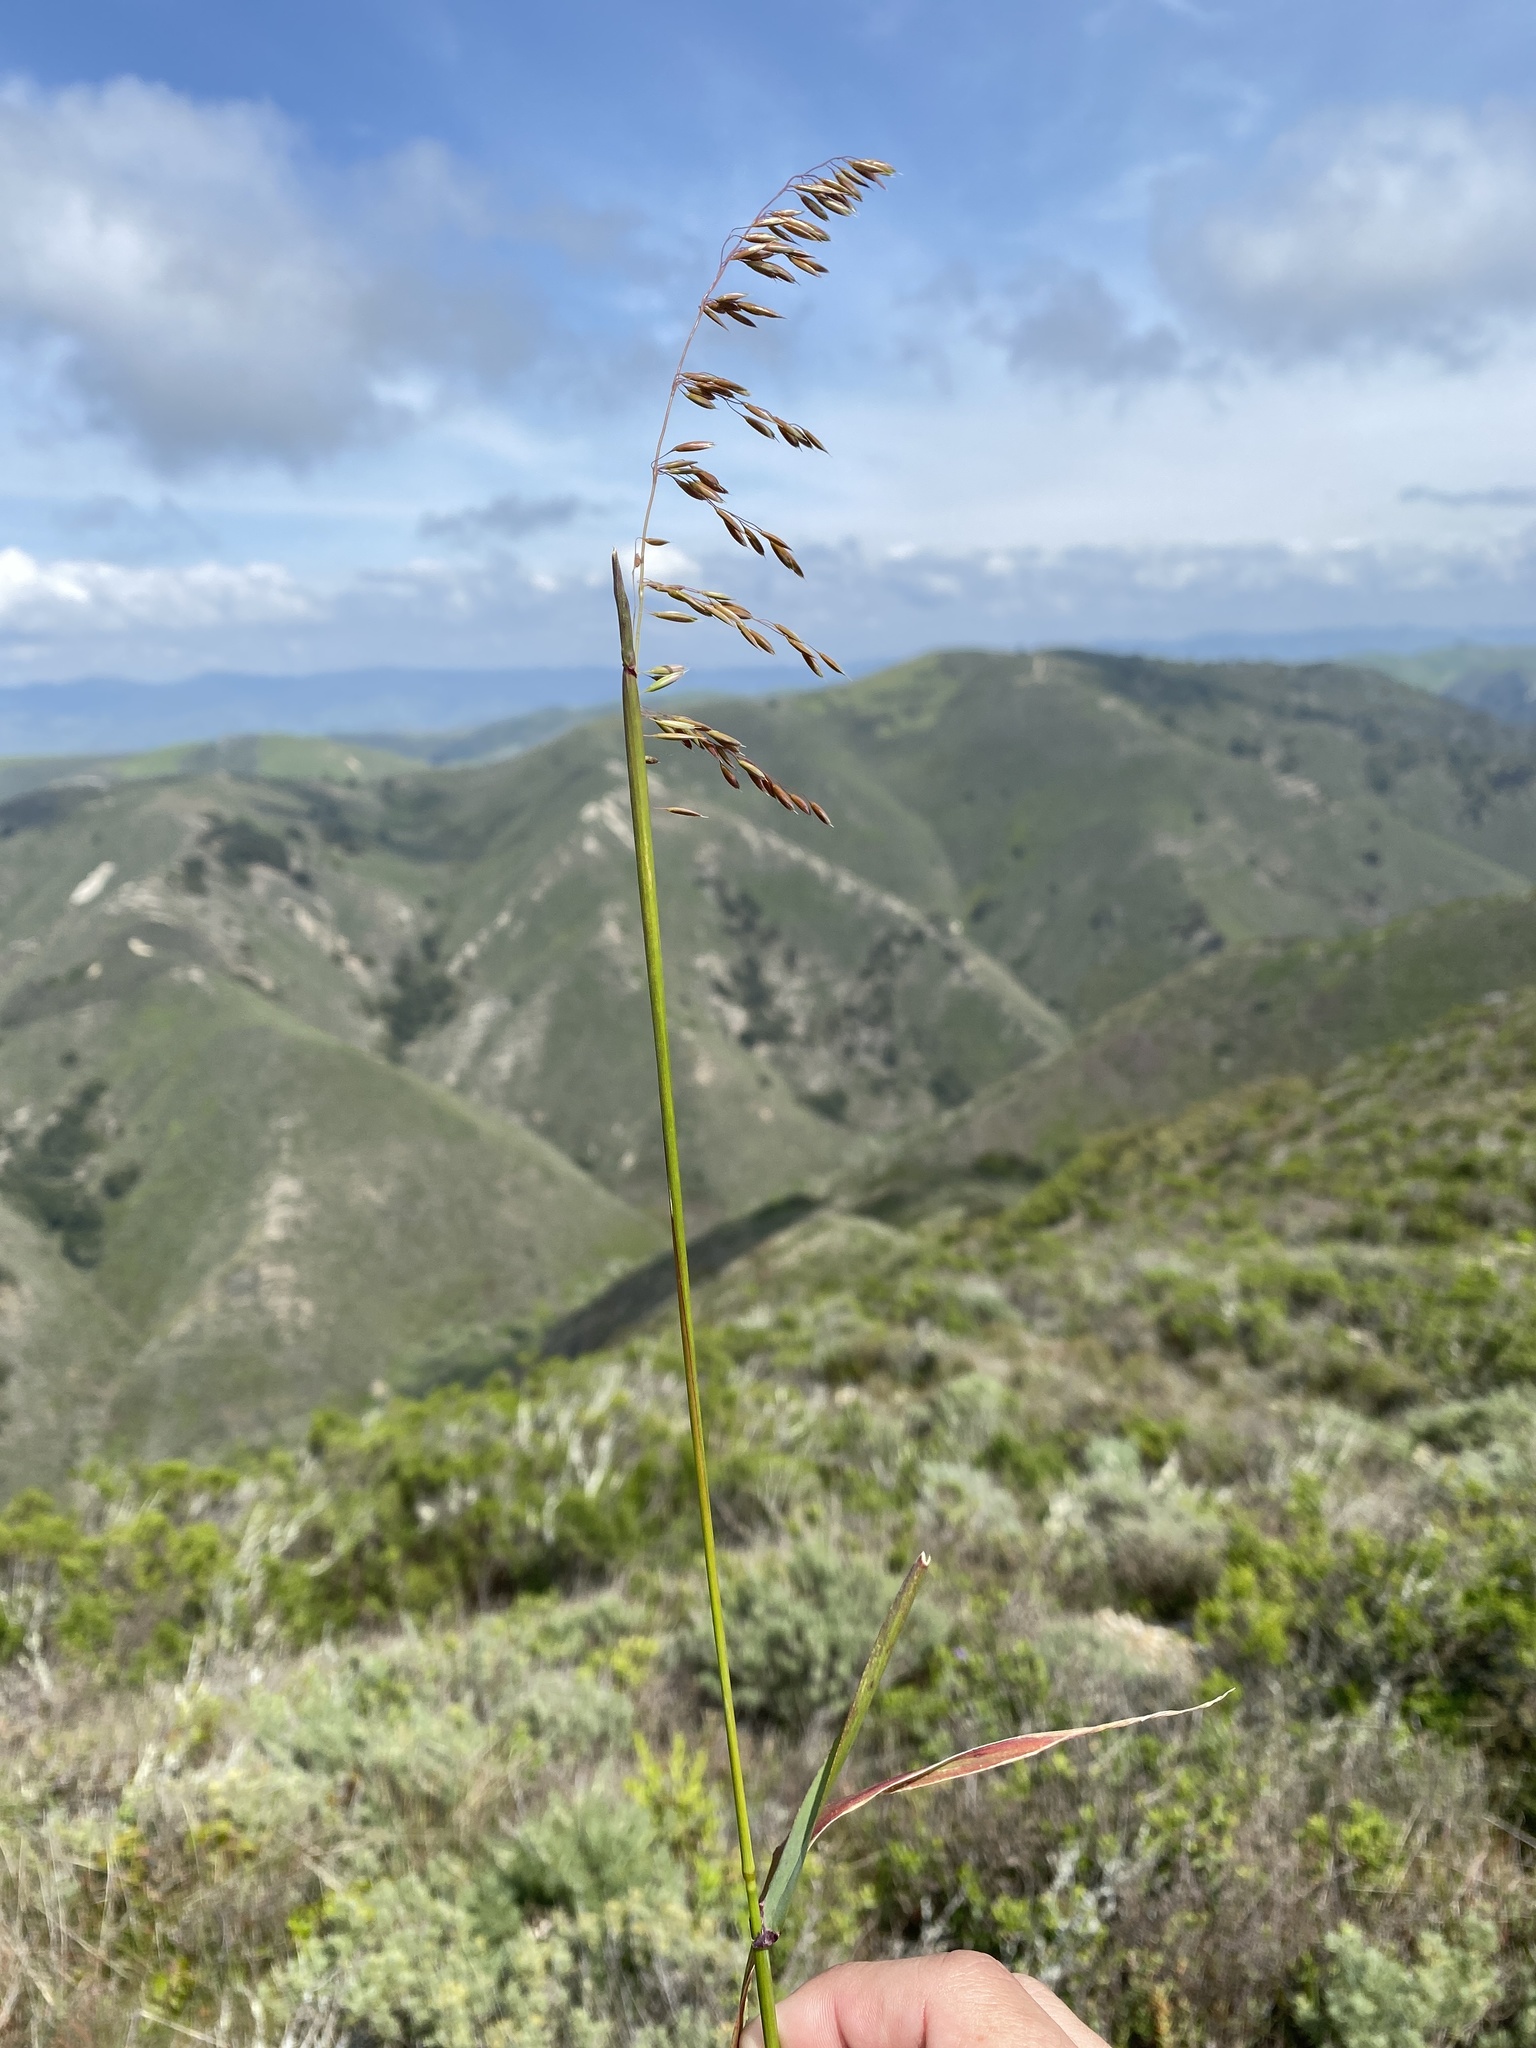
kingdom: Plantae
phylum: Tracheophyta
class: Liliopsida
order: Poales
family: Poaceae
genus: Ehrharta
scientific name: Ehrharta calycina
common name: Perennial veldtgrass
